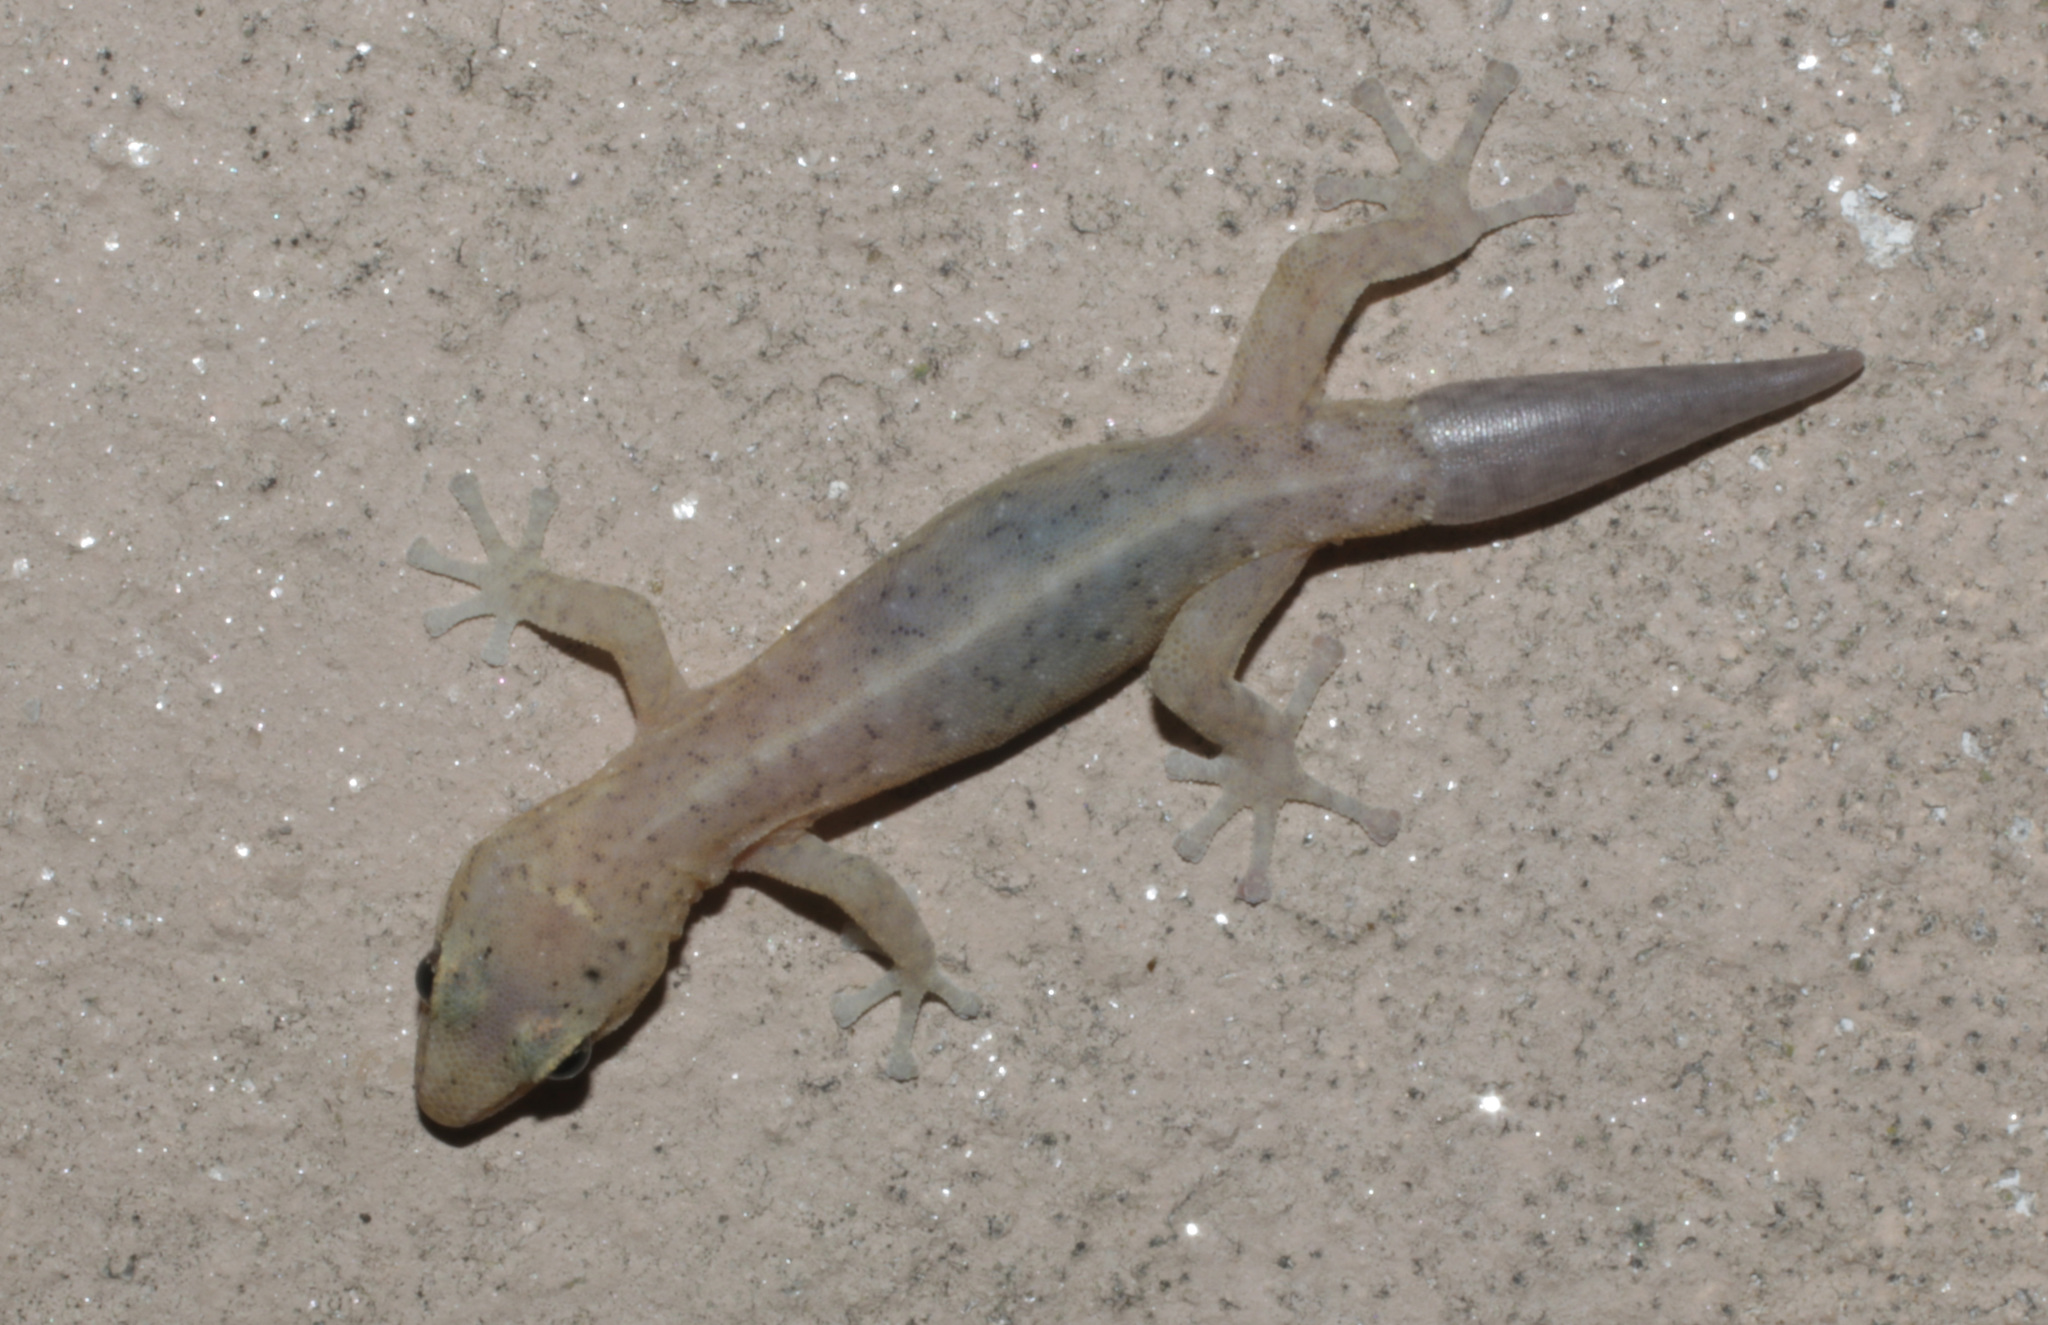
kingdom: Animalia
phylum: Chordata
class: Squamata
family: Gekkonidae
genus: Afrogecko
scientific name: Afrogecko porphyreus
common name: Marbled leaf-toed gecko
